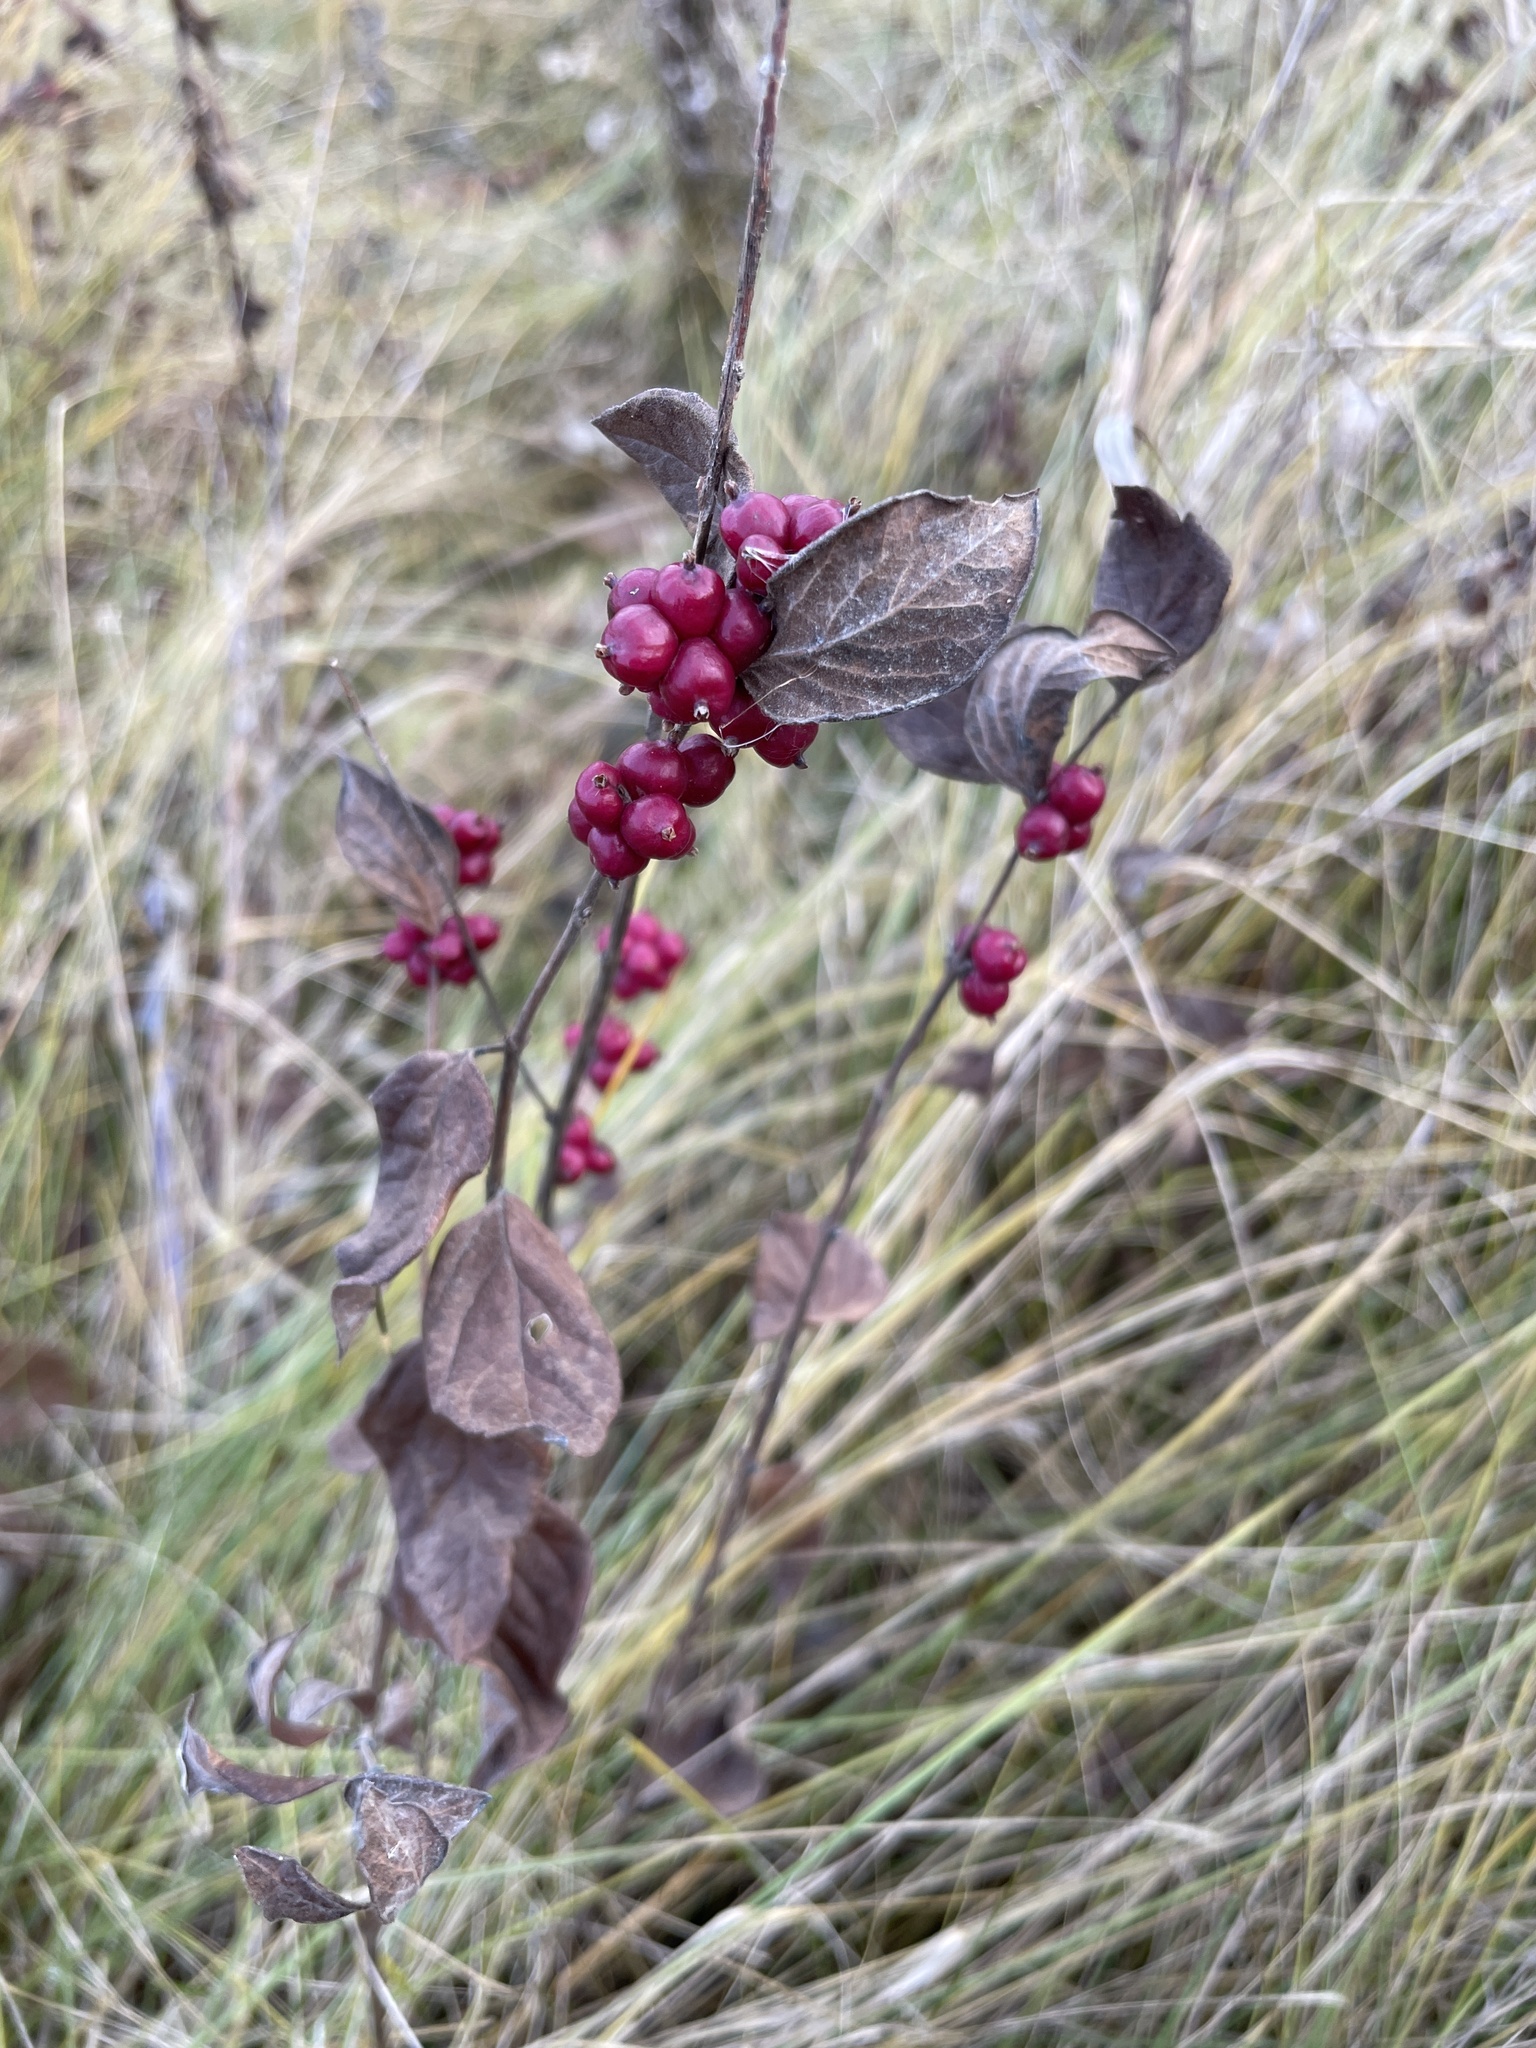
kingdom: Plantae
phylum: Tracheophyta
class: Magnoliopsida
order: Dipsacales
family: Caprifoliaceae
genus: Symphoricarpos
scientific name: Symphoricarpos orbiculatus
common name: Coralberry
